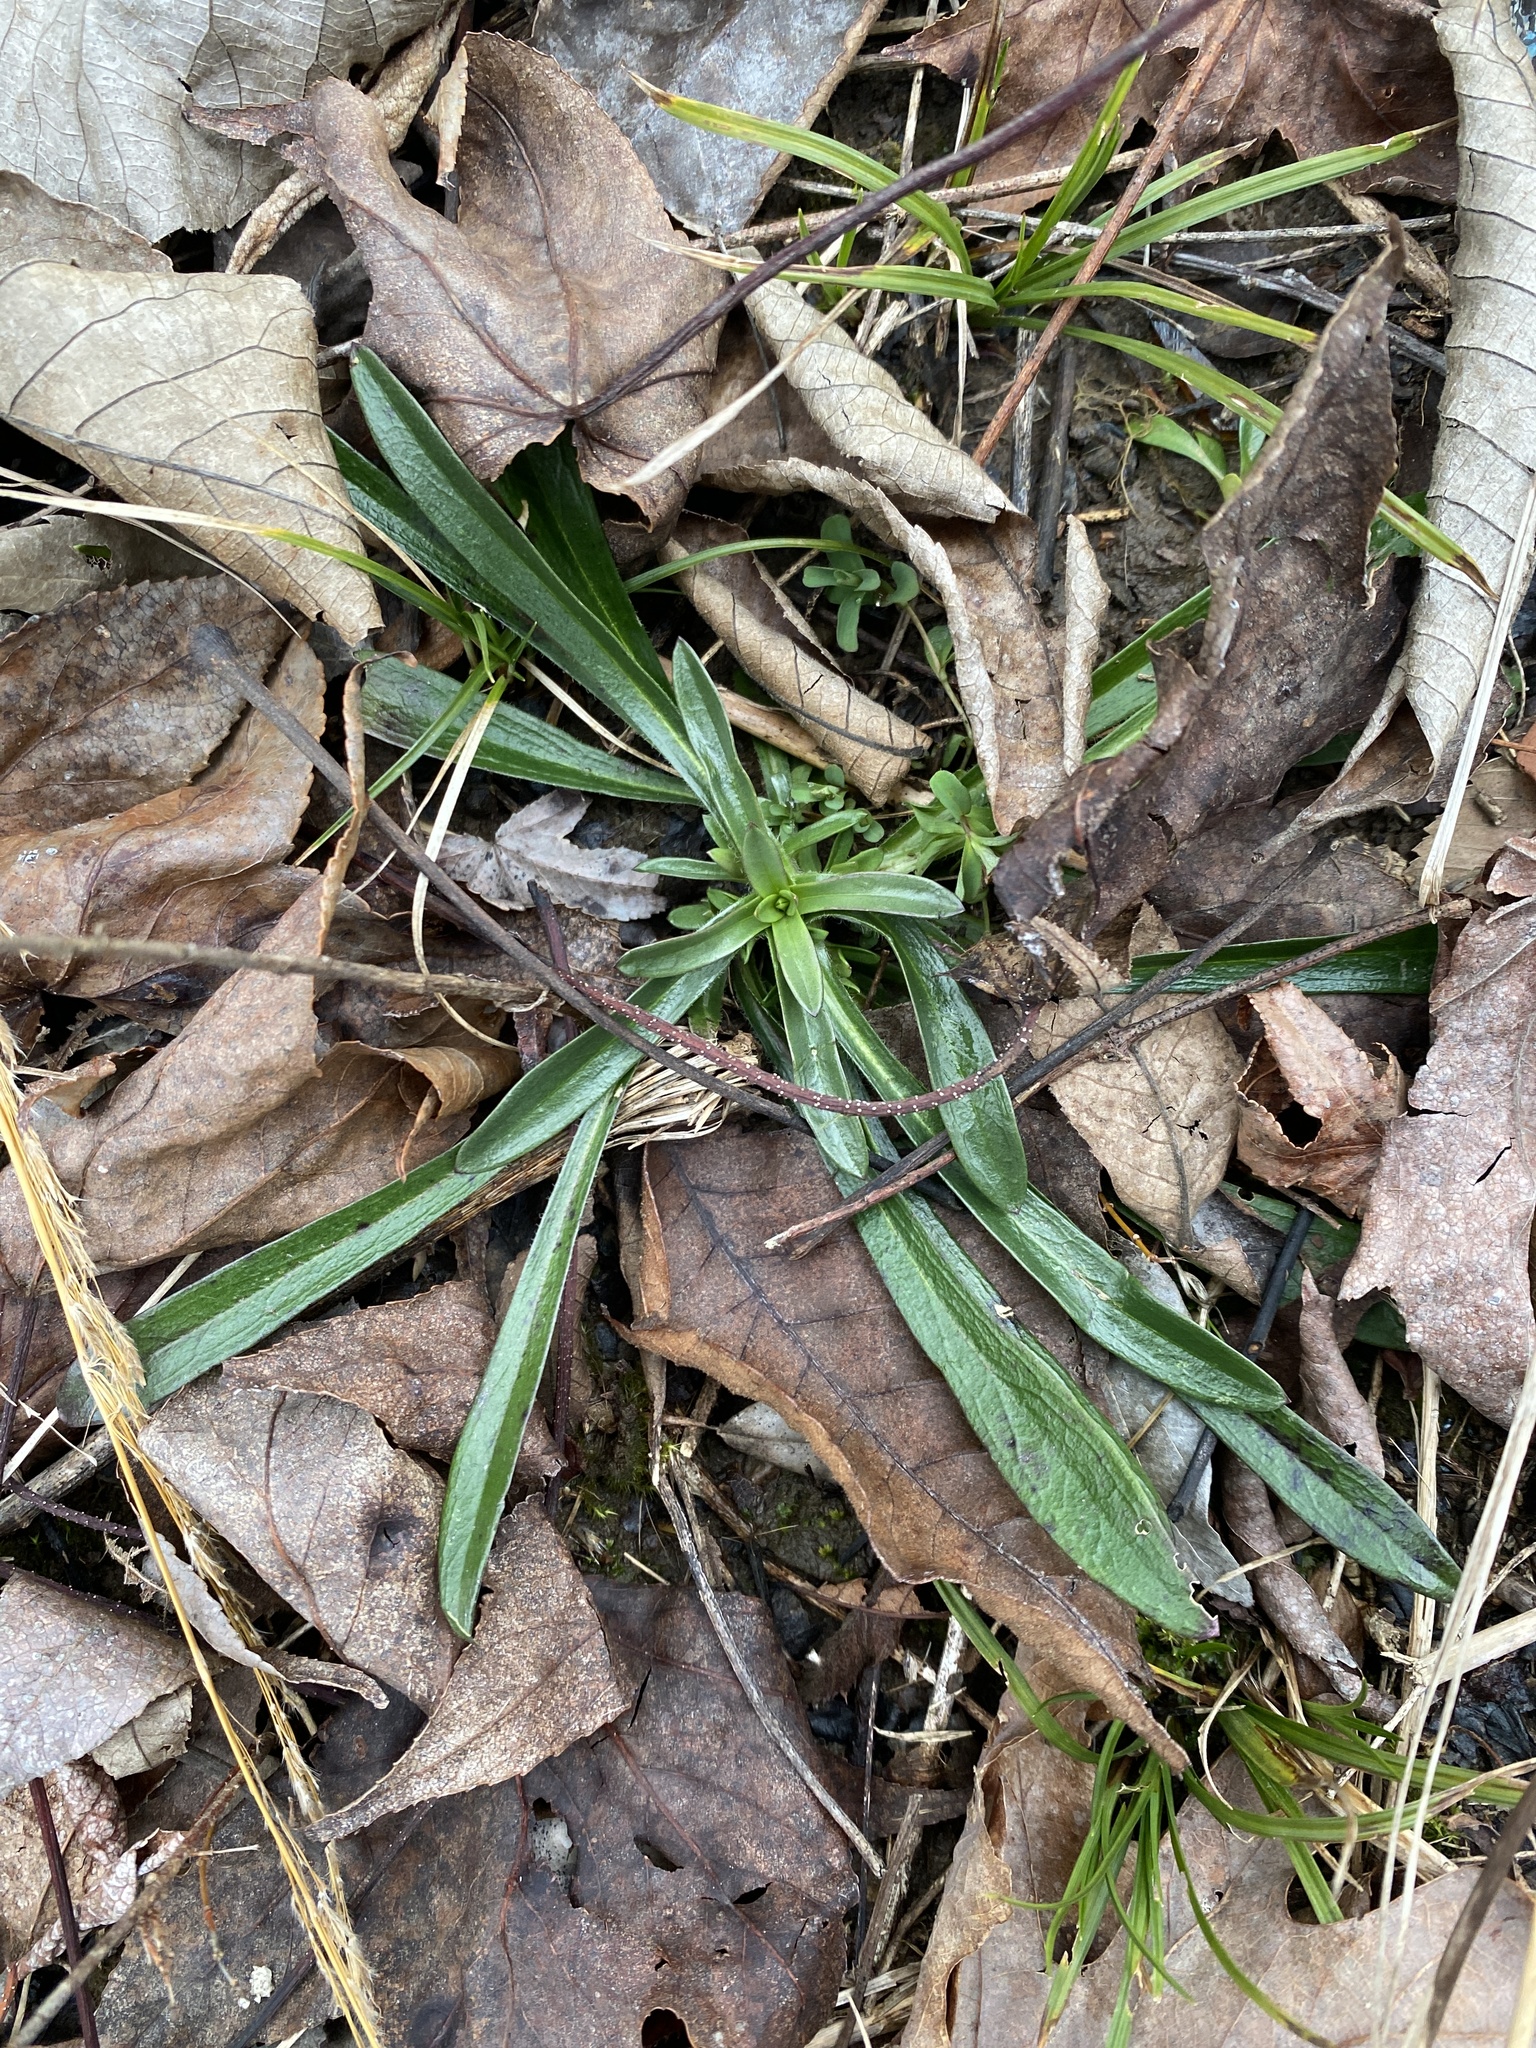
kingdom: Plantae
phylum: Tracheophyta
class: Magnoliopsida
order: Caryophyllales
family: Caryophyllaceae
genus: Dianthus
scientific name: Dianthus armeria
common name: Deptford pink
